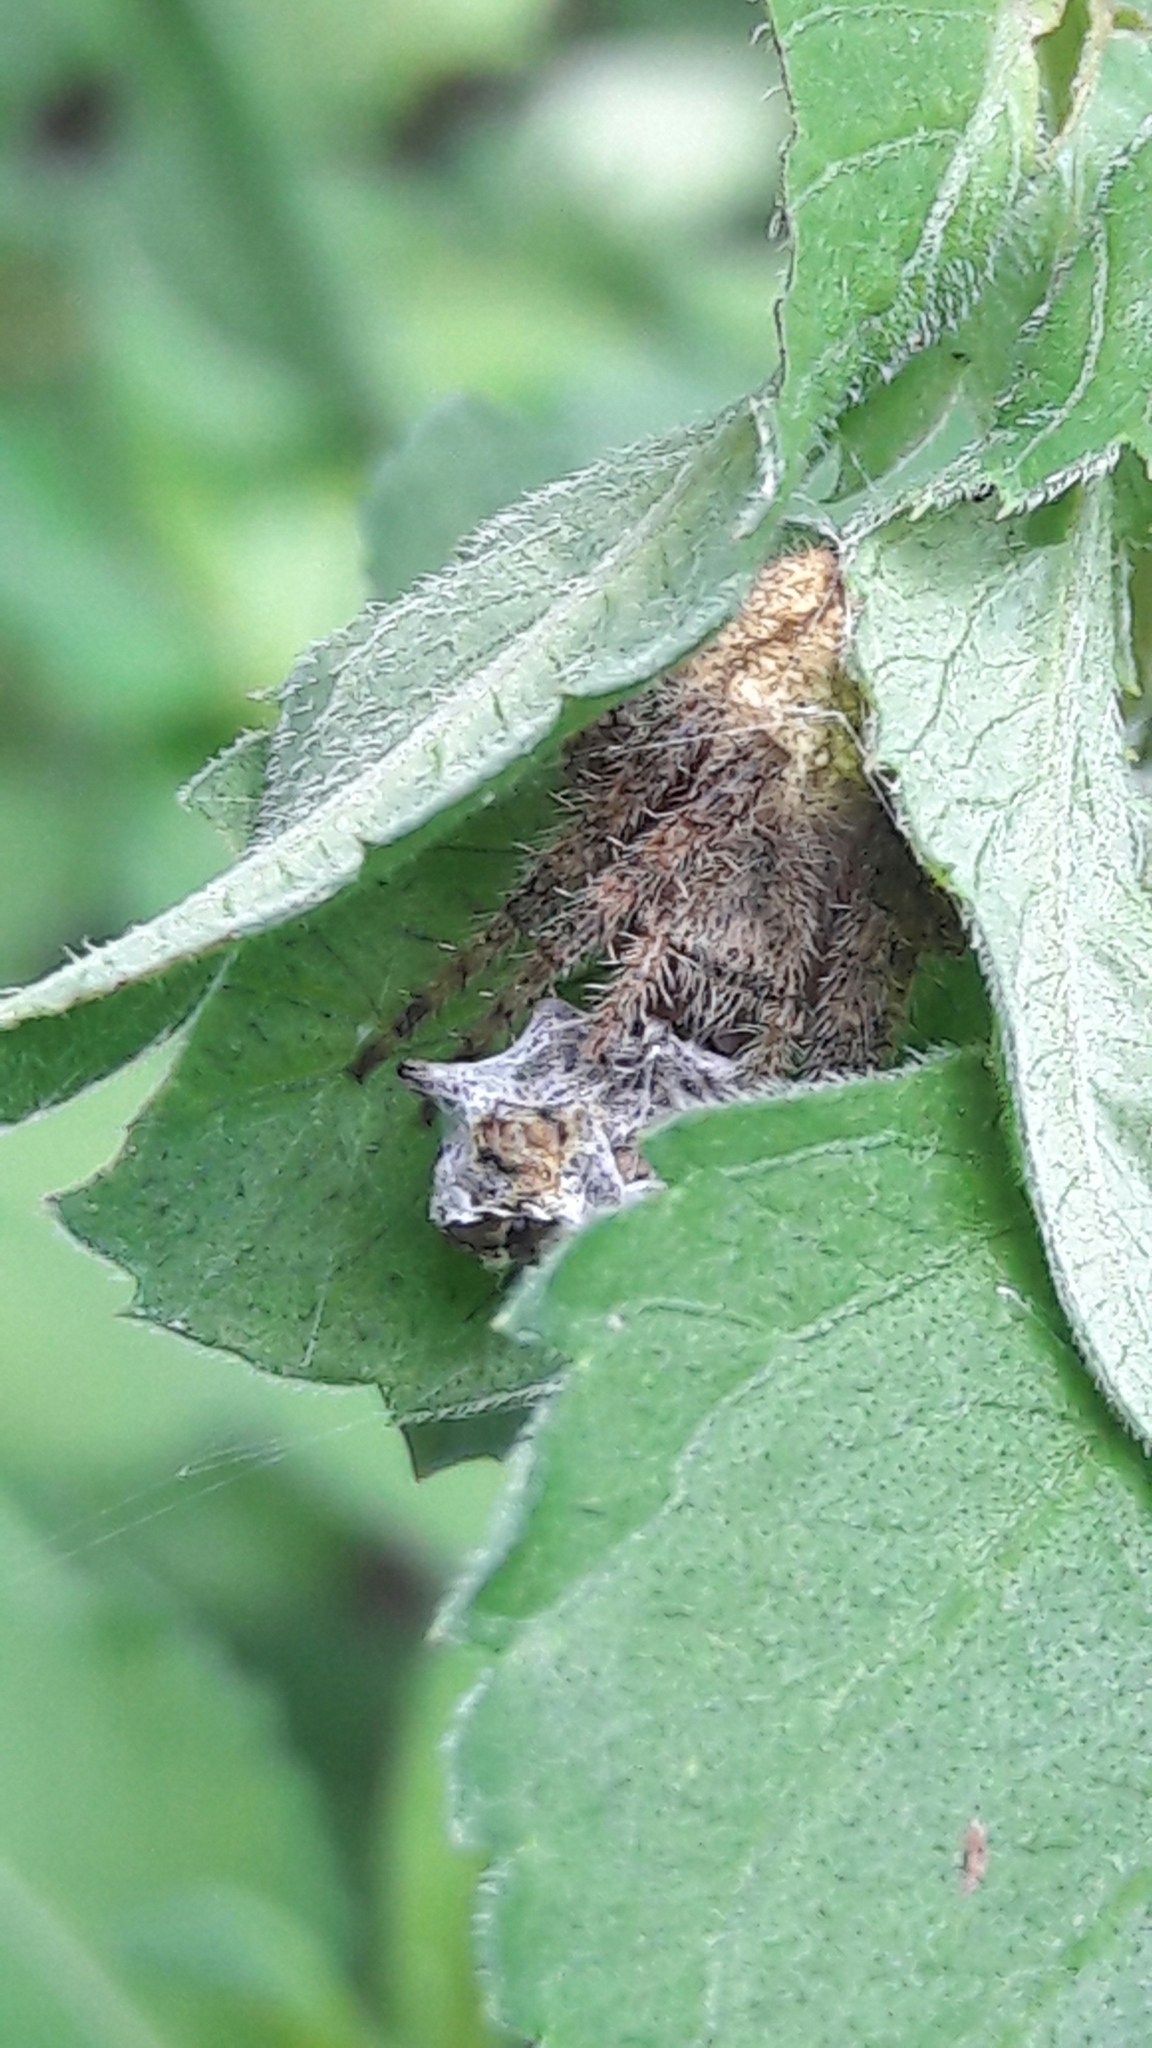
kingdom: Animalia
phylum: Arthropoda
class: Arachnida
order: Araneae
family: Araneidae
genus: Eriophora
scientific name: Eriophora edax
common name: Orb weavers
